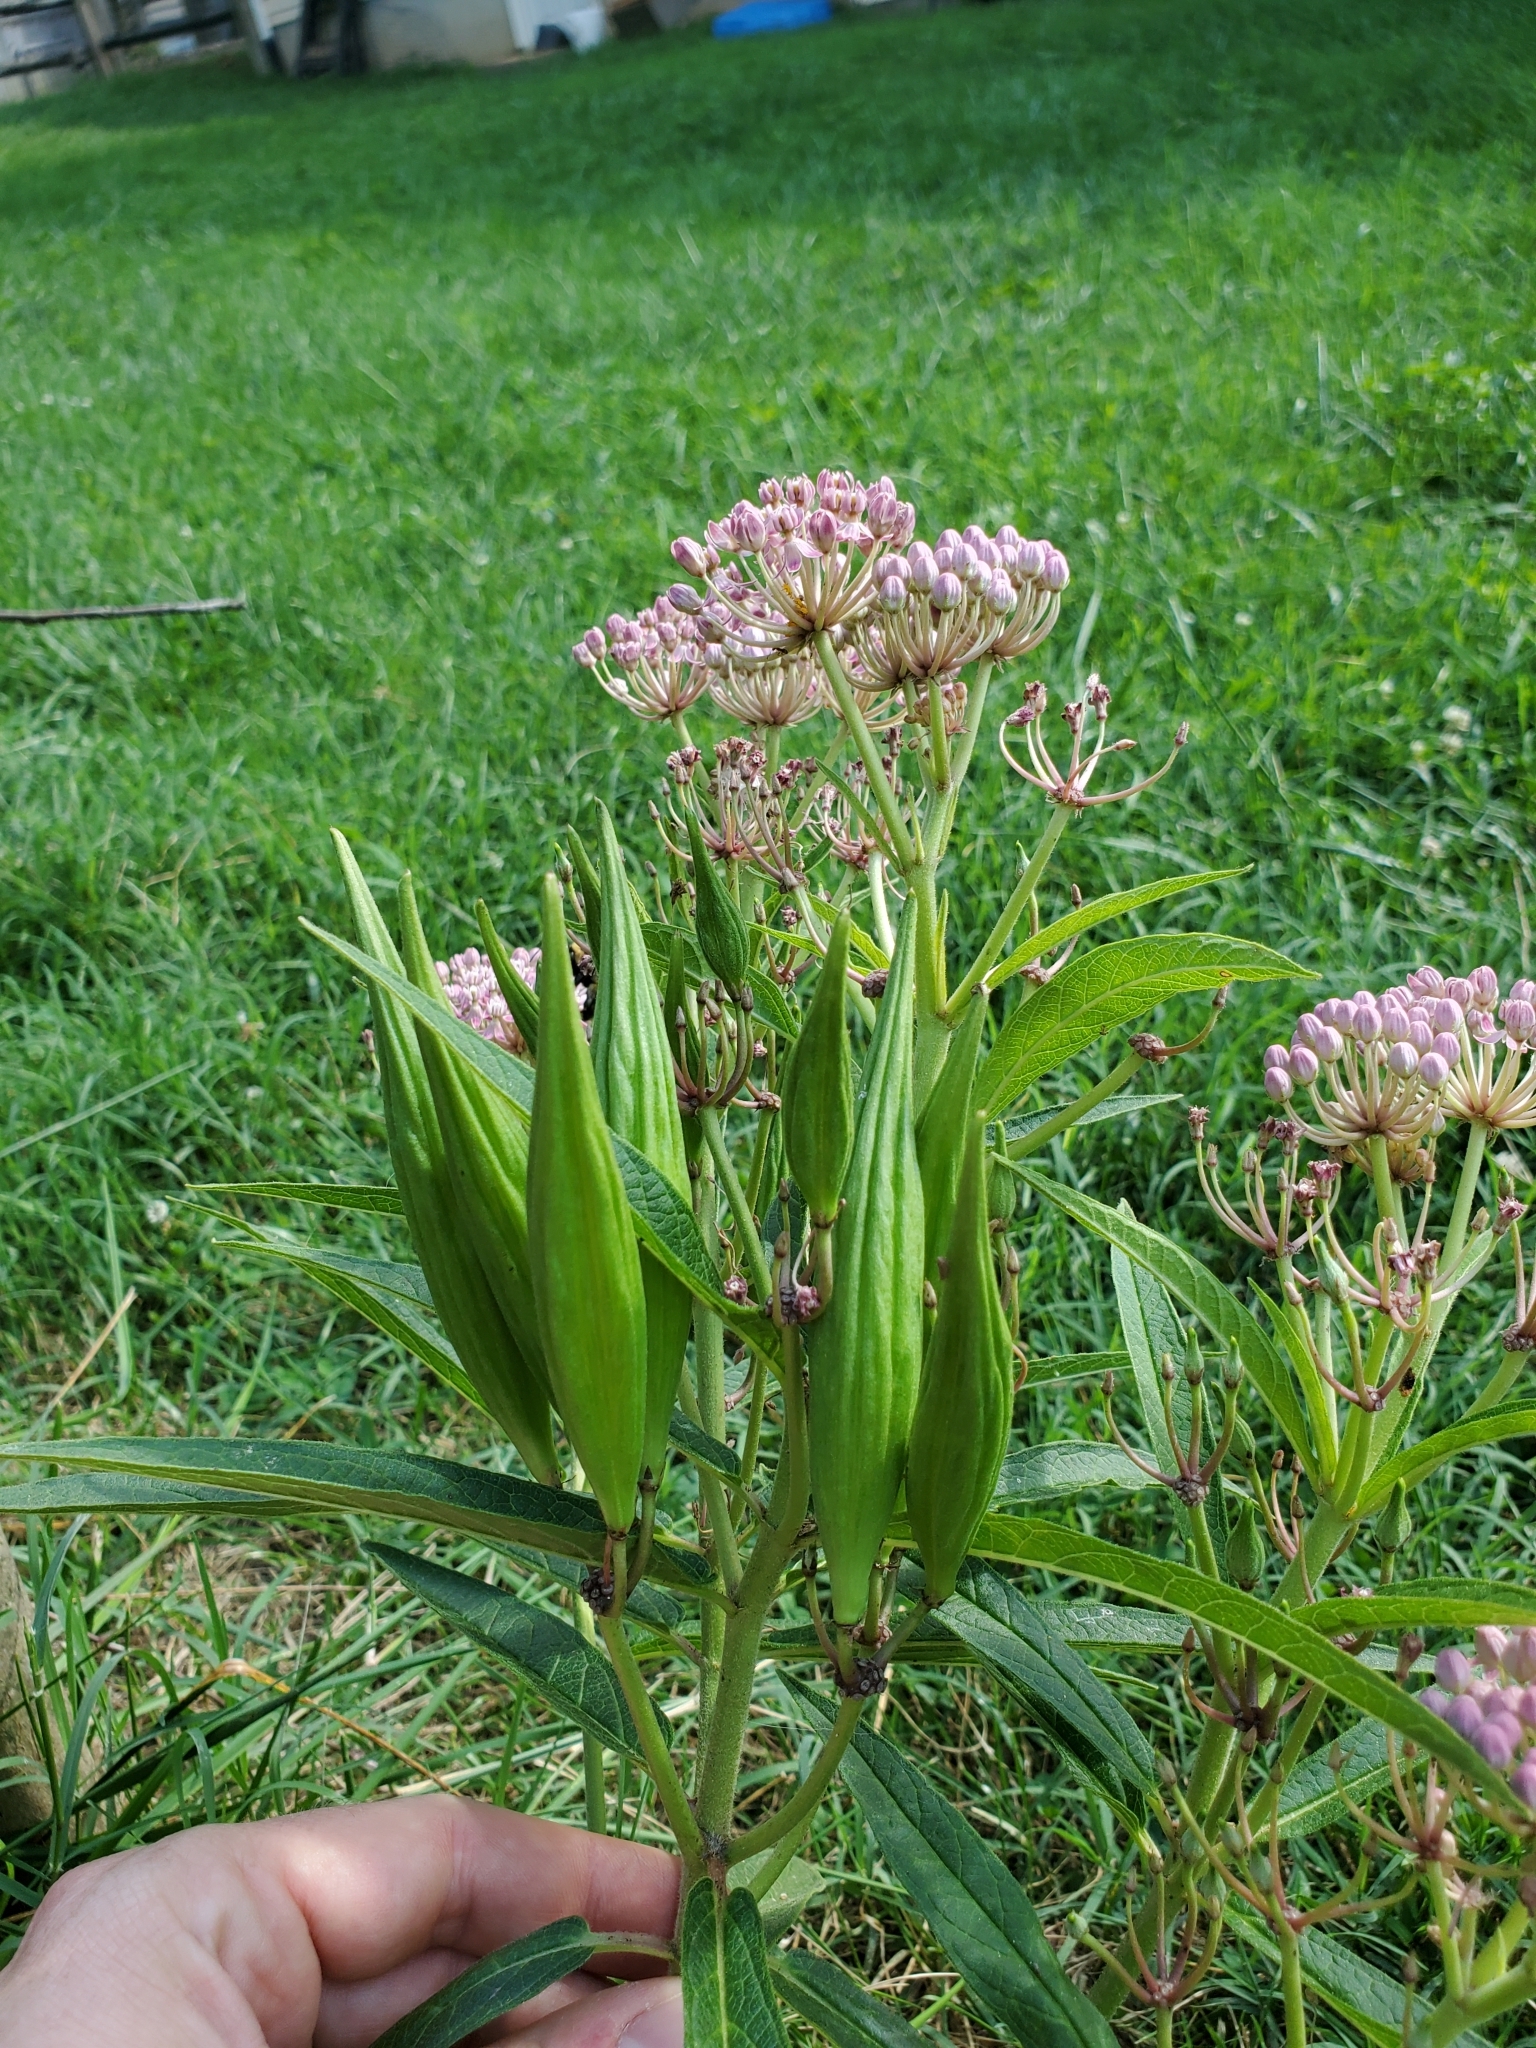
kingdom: Plantae
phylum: Tracheophyta
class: Magnoliopsida
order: Gentianales
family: Apocynaceae
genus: Asclepias
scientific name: Asclepias incarnata
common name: Swamp milkweed
